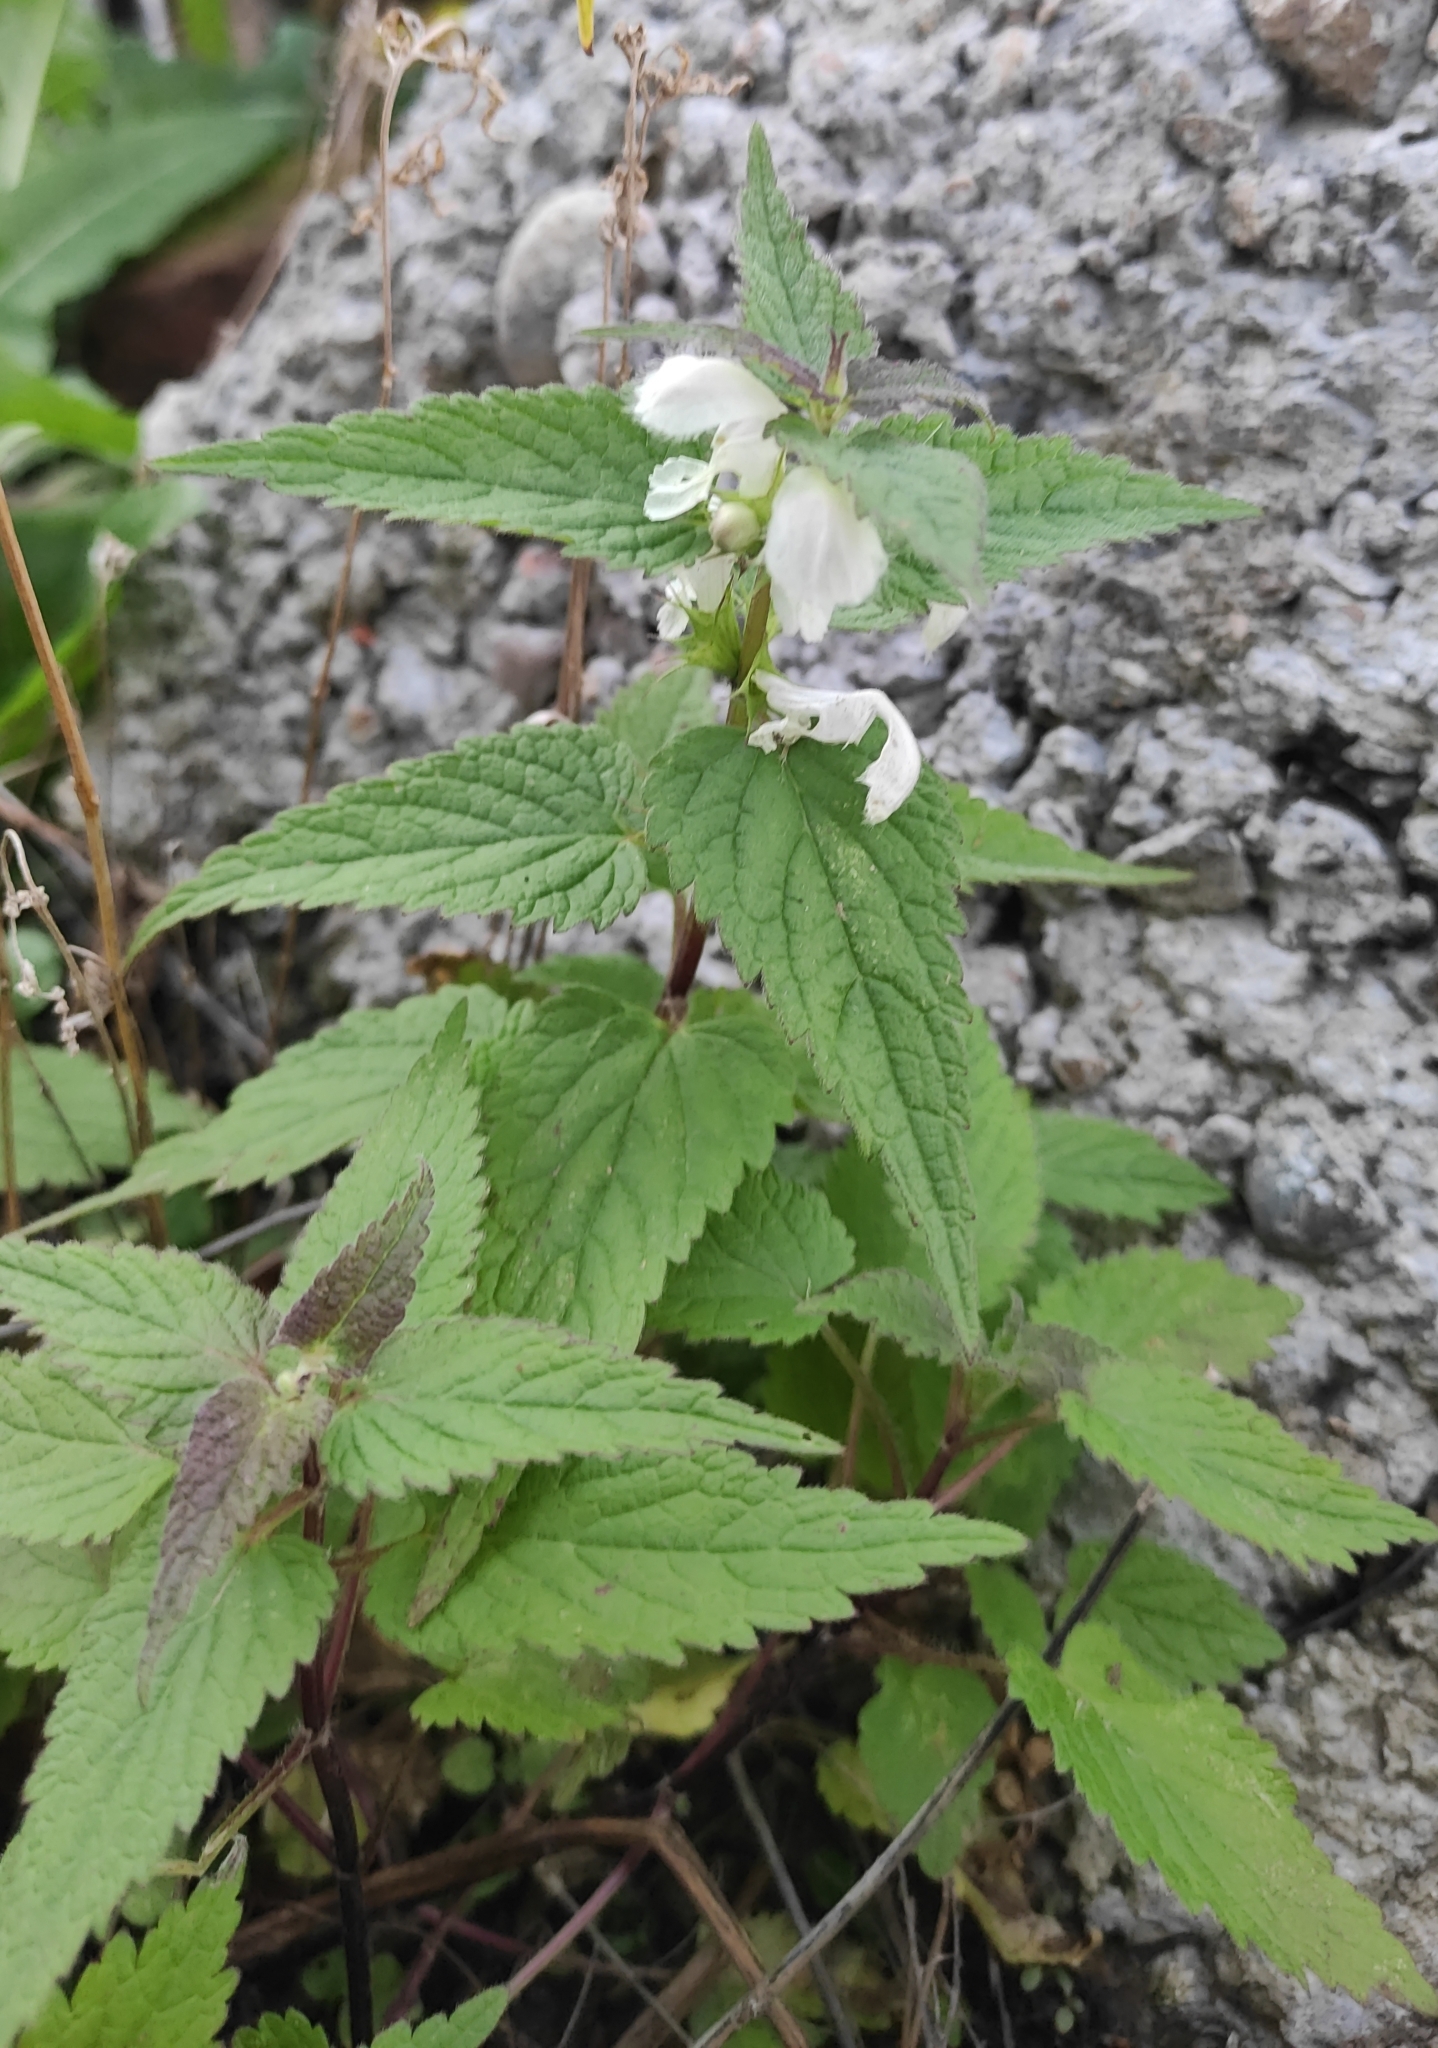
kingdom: Plantae
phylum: Tracheophyta
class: Magnoliopsida
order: Lamiales
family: Lamiaceae
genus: Lamium
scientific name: Lamium album
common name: White dead-nettle
